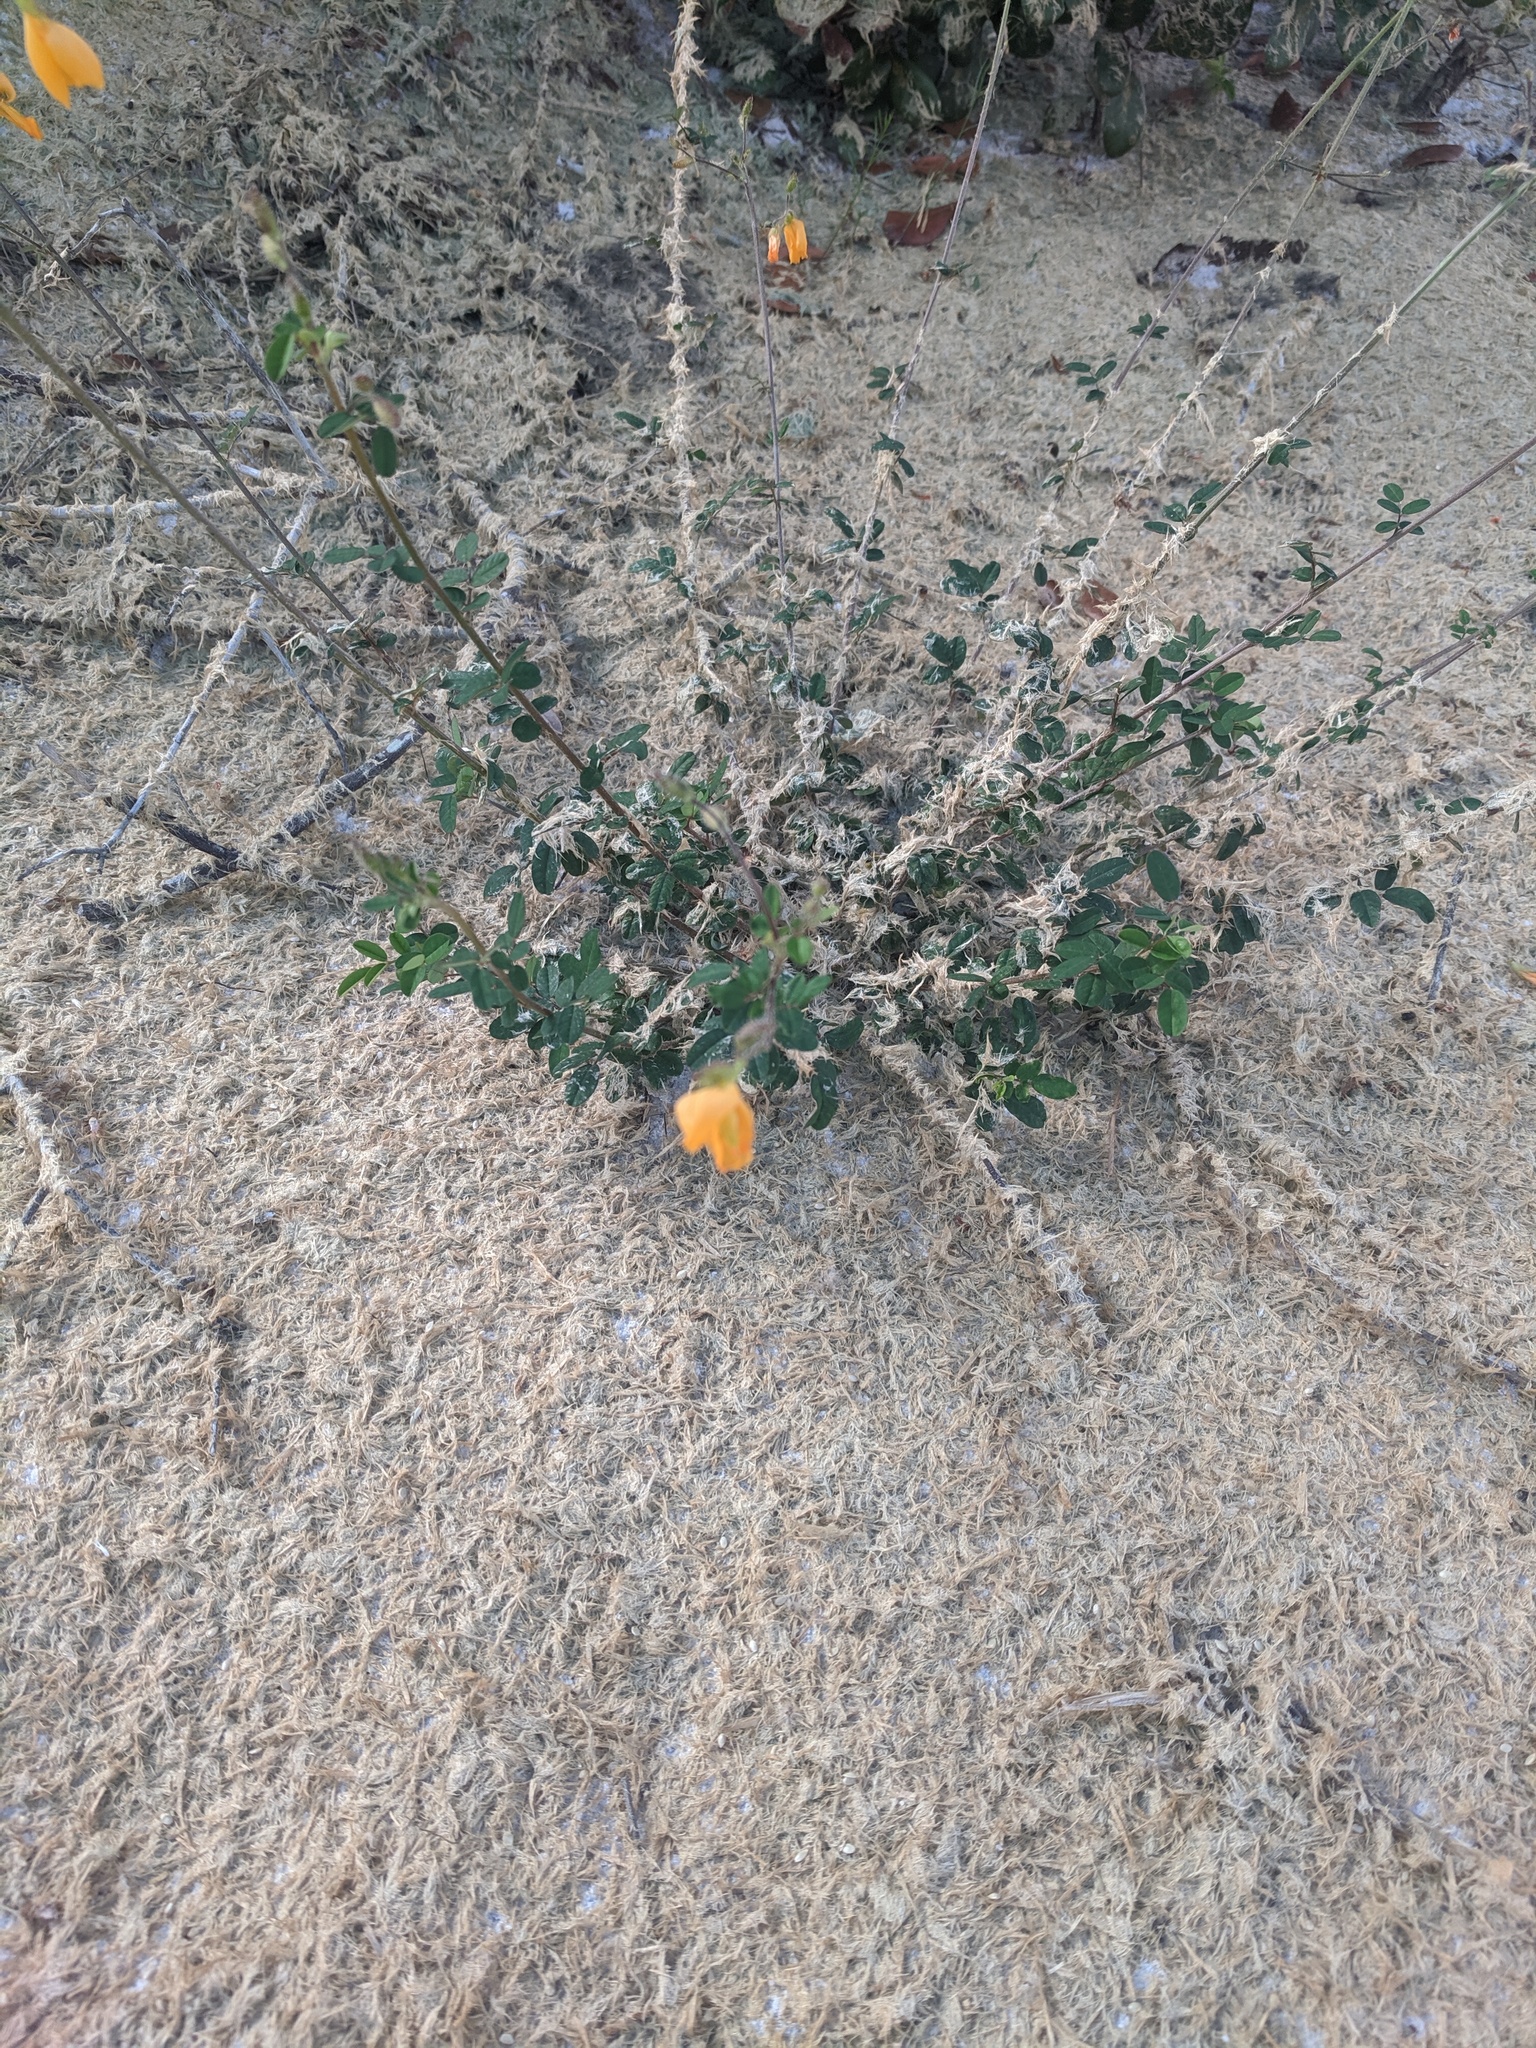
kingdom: Plantae
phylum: Tracheophyta
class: Magnoliopsida
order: Fabales
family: Fabaceae
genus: Chapmannia
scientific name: Chapmannia floridana
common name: Alicia
